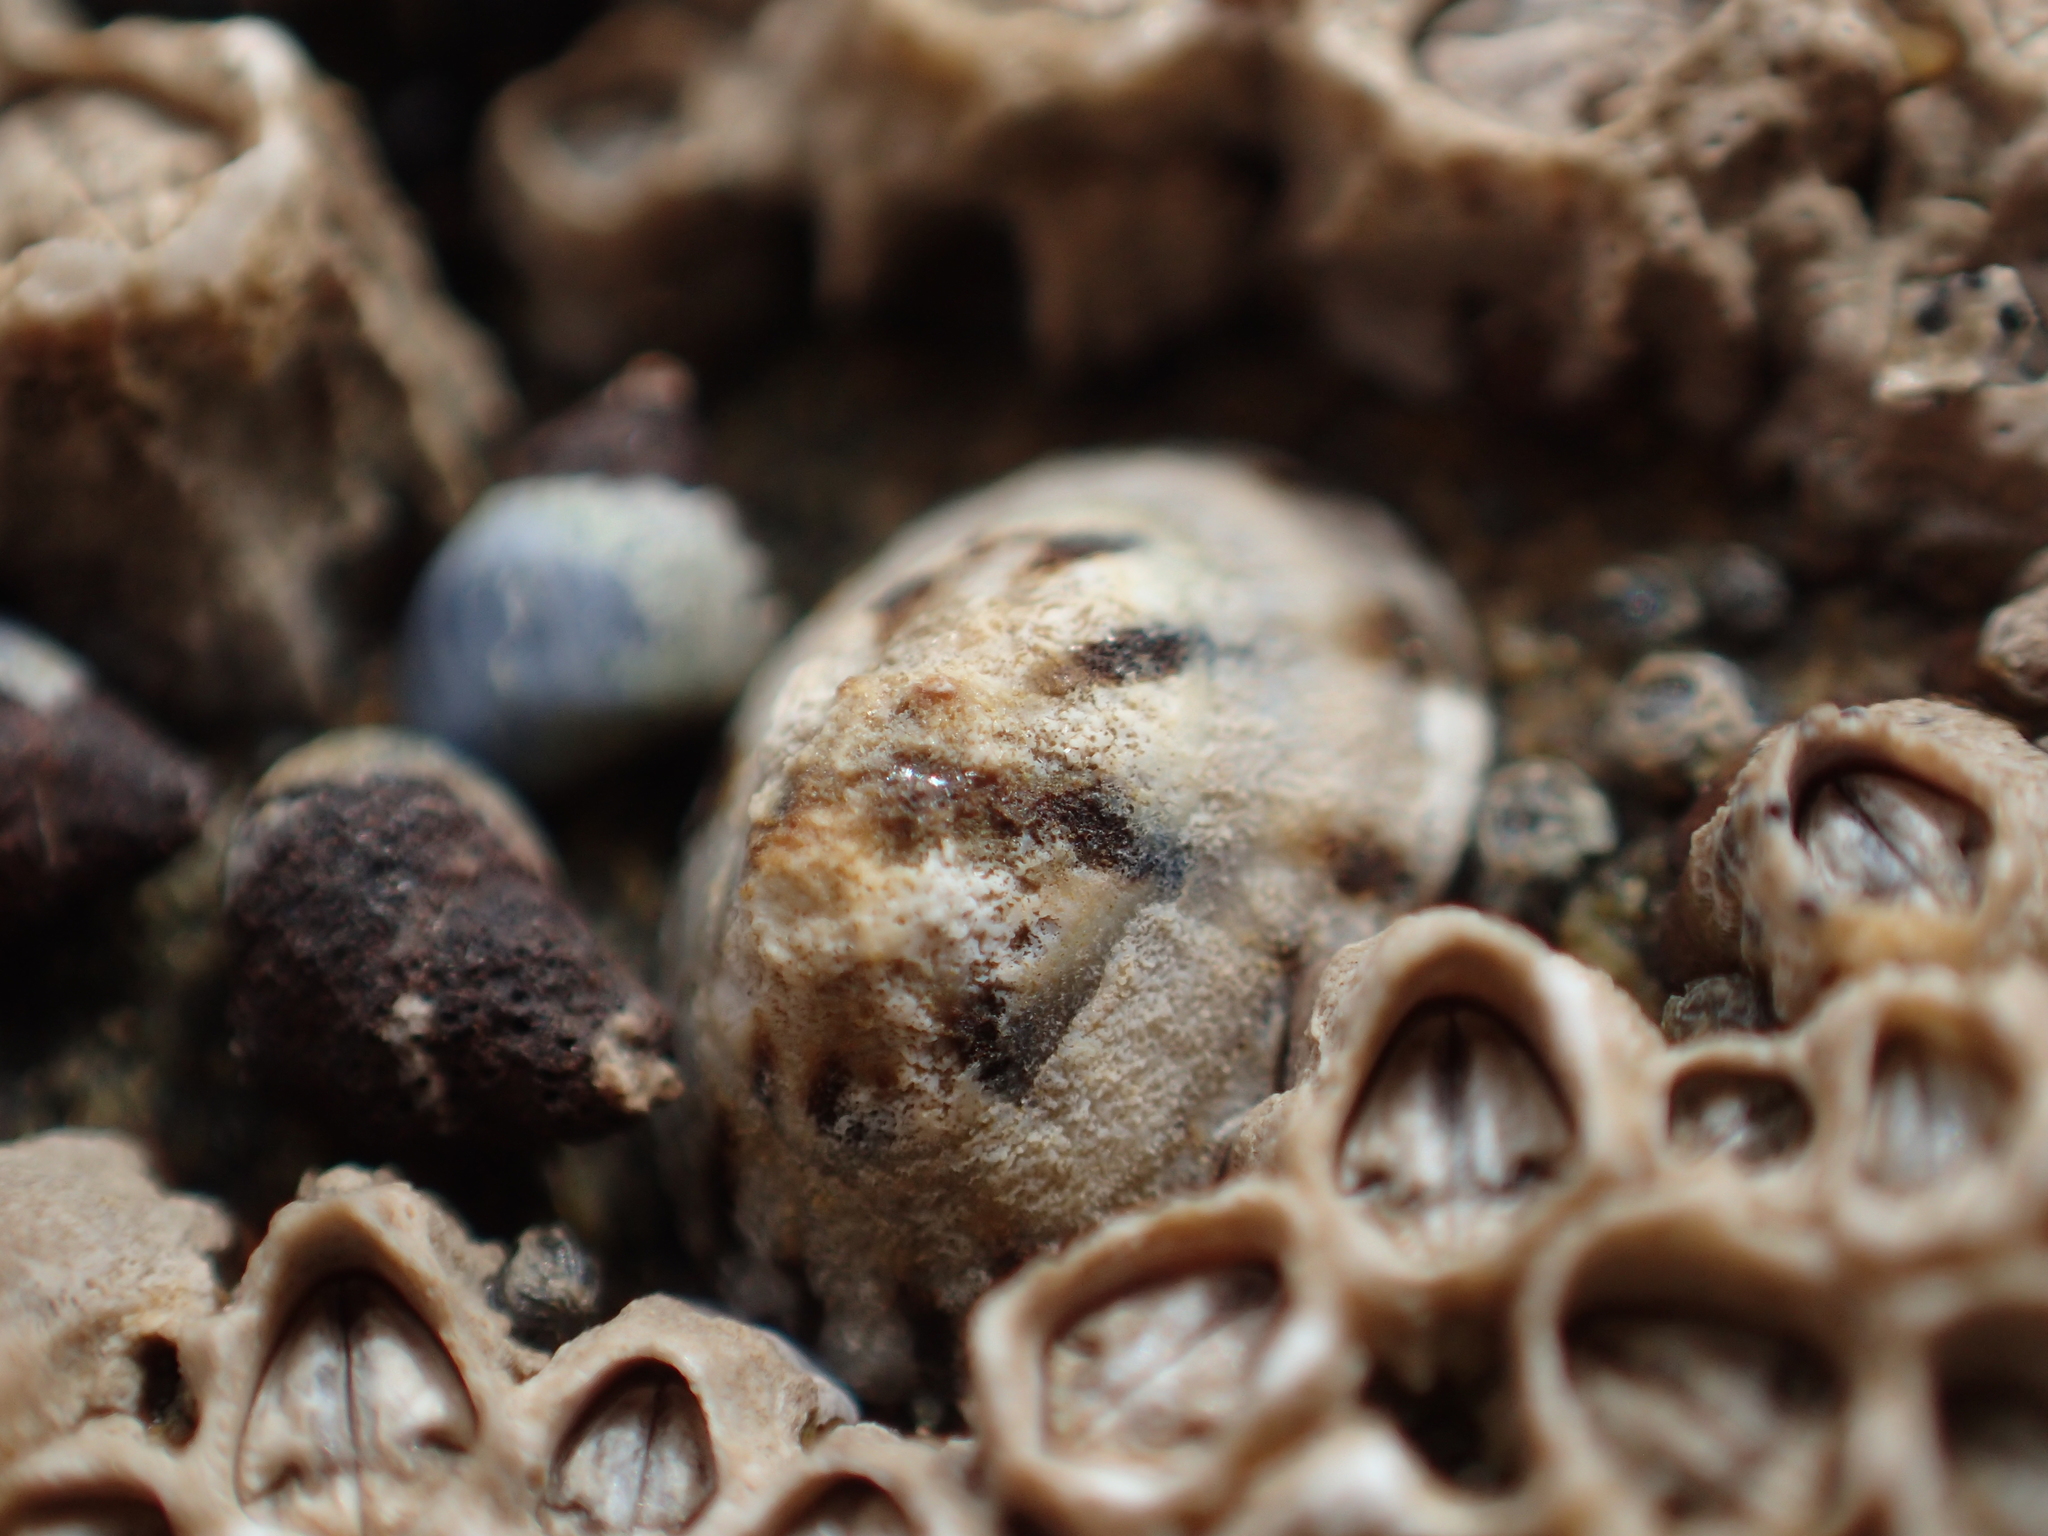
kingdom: Animalia
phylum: Mollusca
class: Gastropoda
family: Lottiidae
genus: Notoacmea
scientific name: Notoacmea parviconoidea
